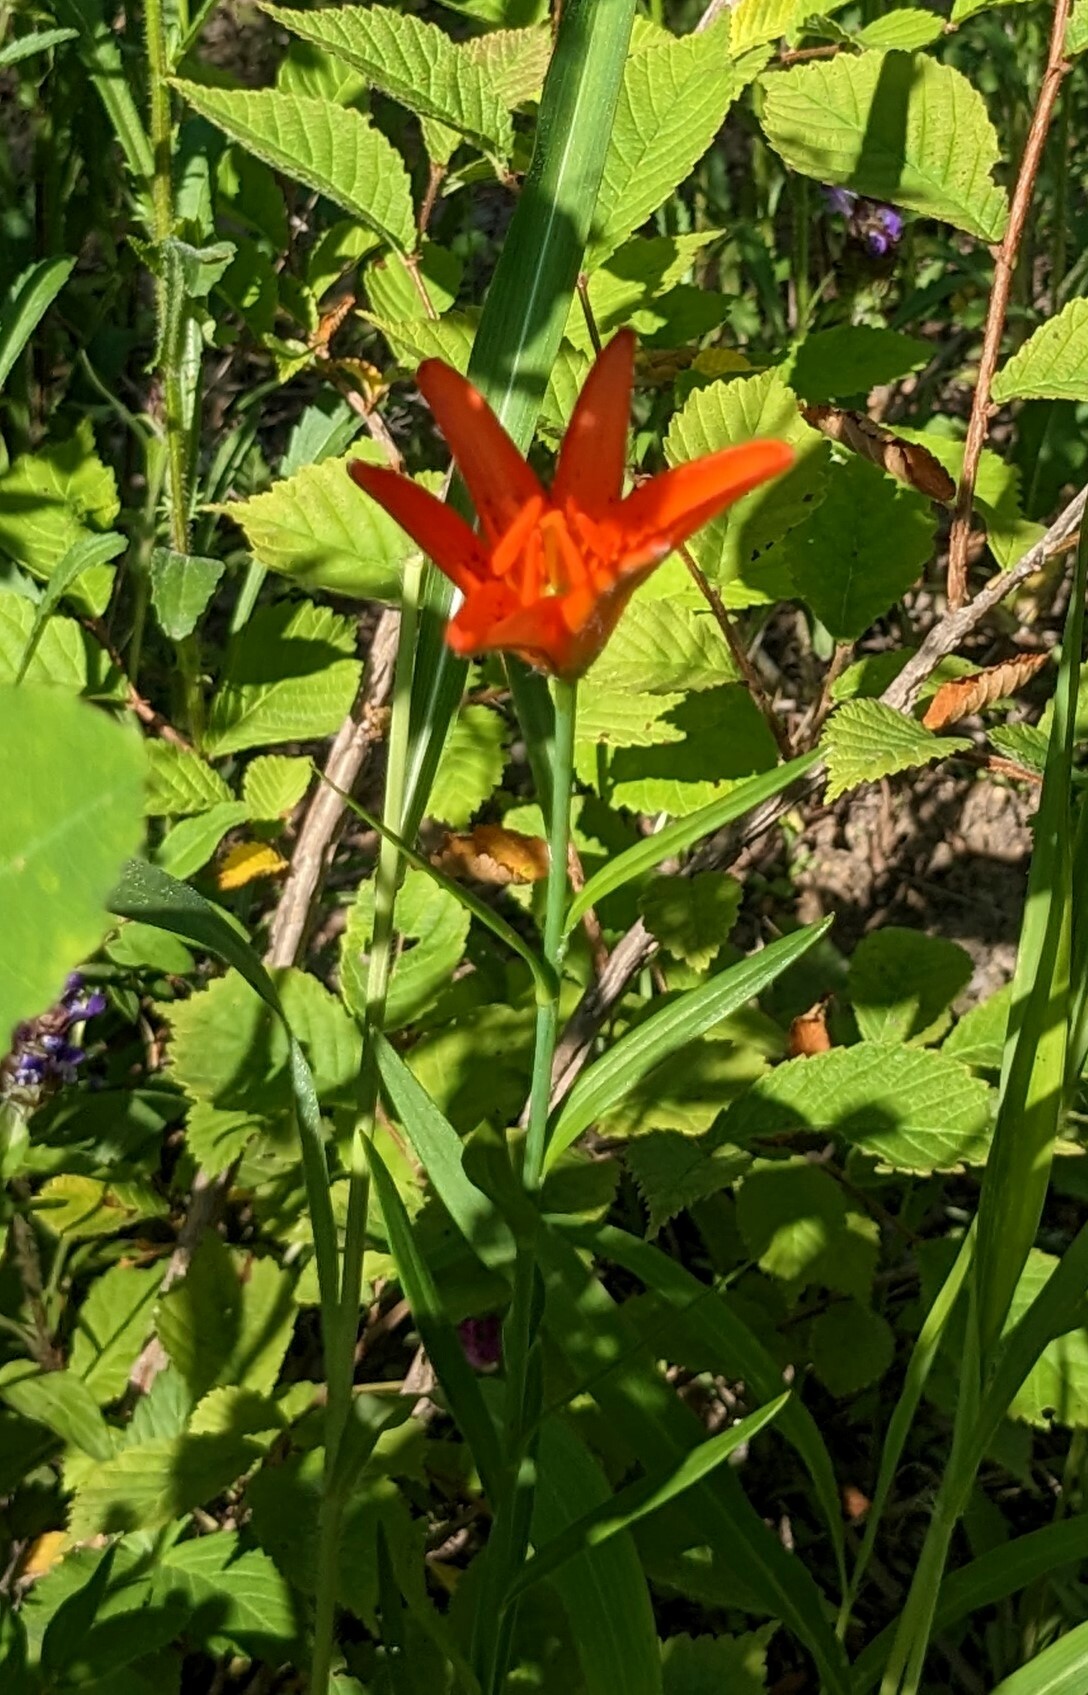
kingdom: Plantae
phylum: Tracheophyta
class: Liliopsida
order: Liliales
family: Liliaceae
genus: Lilium
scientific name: Lilium concolor
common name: Morning-star lily
